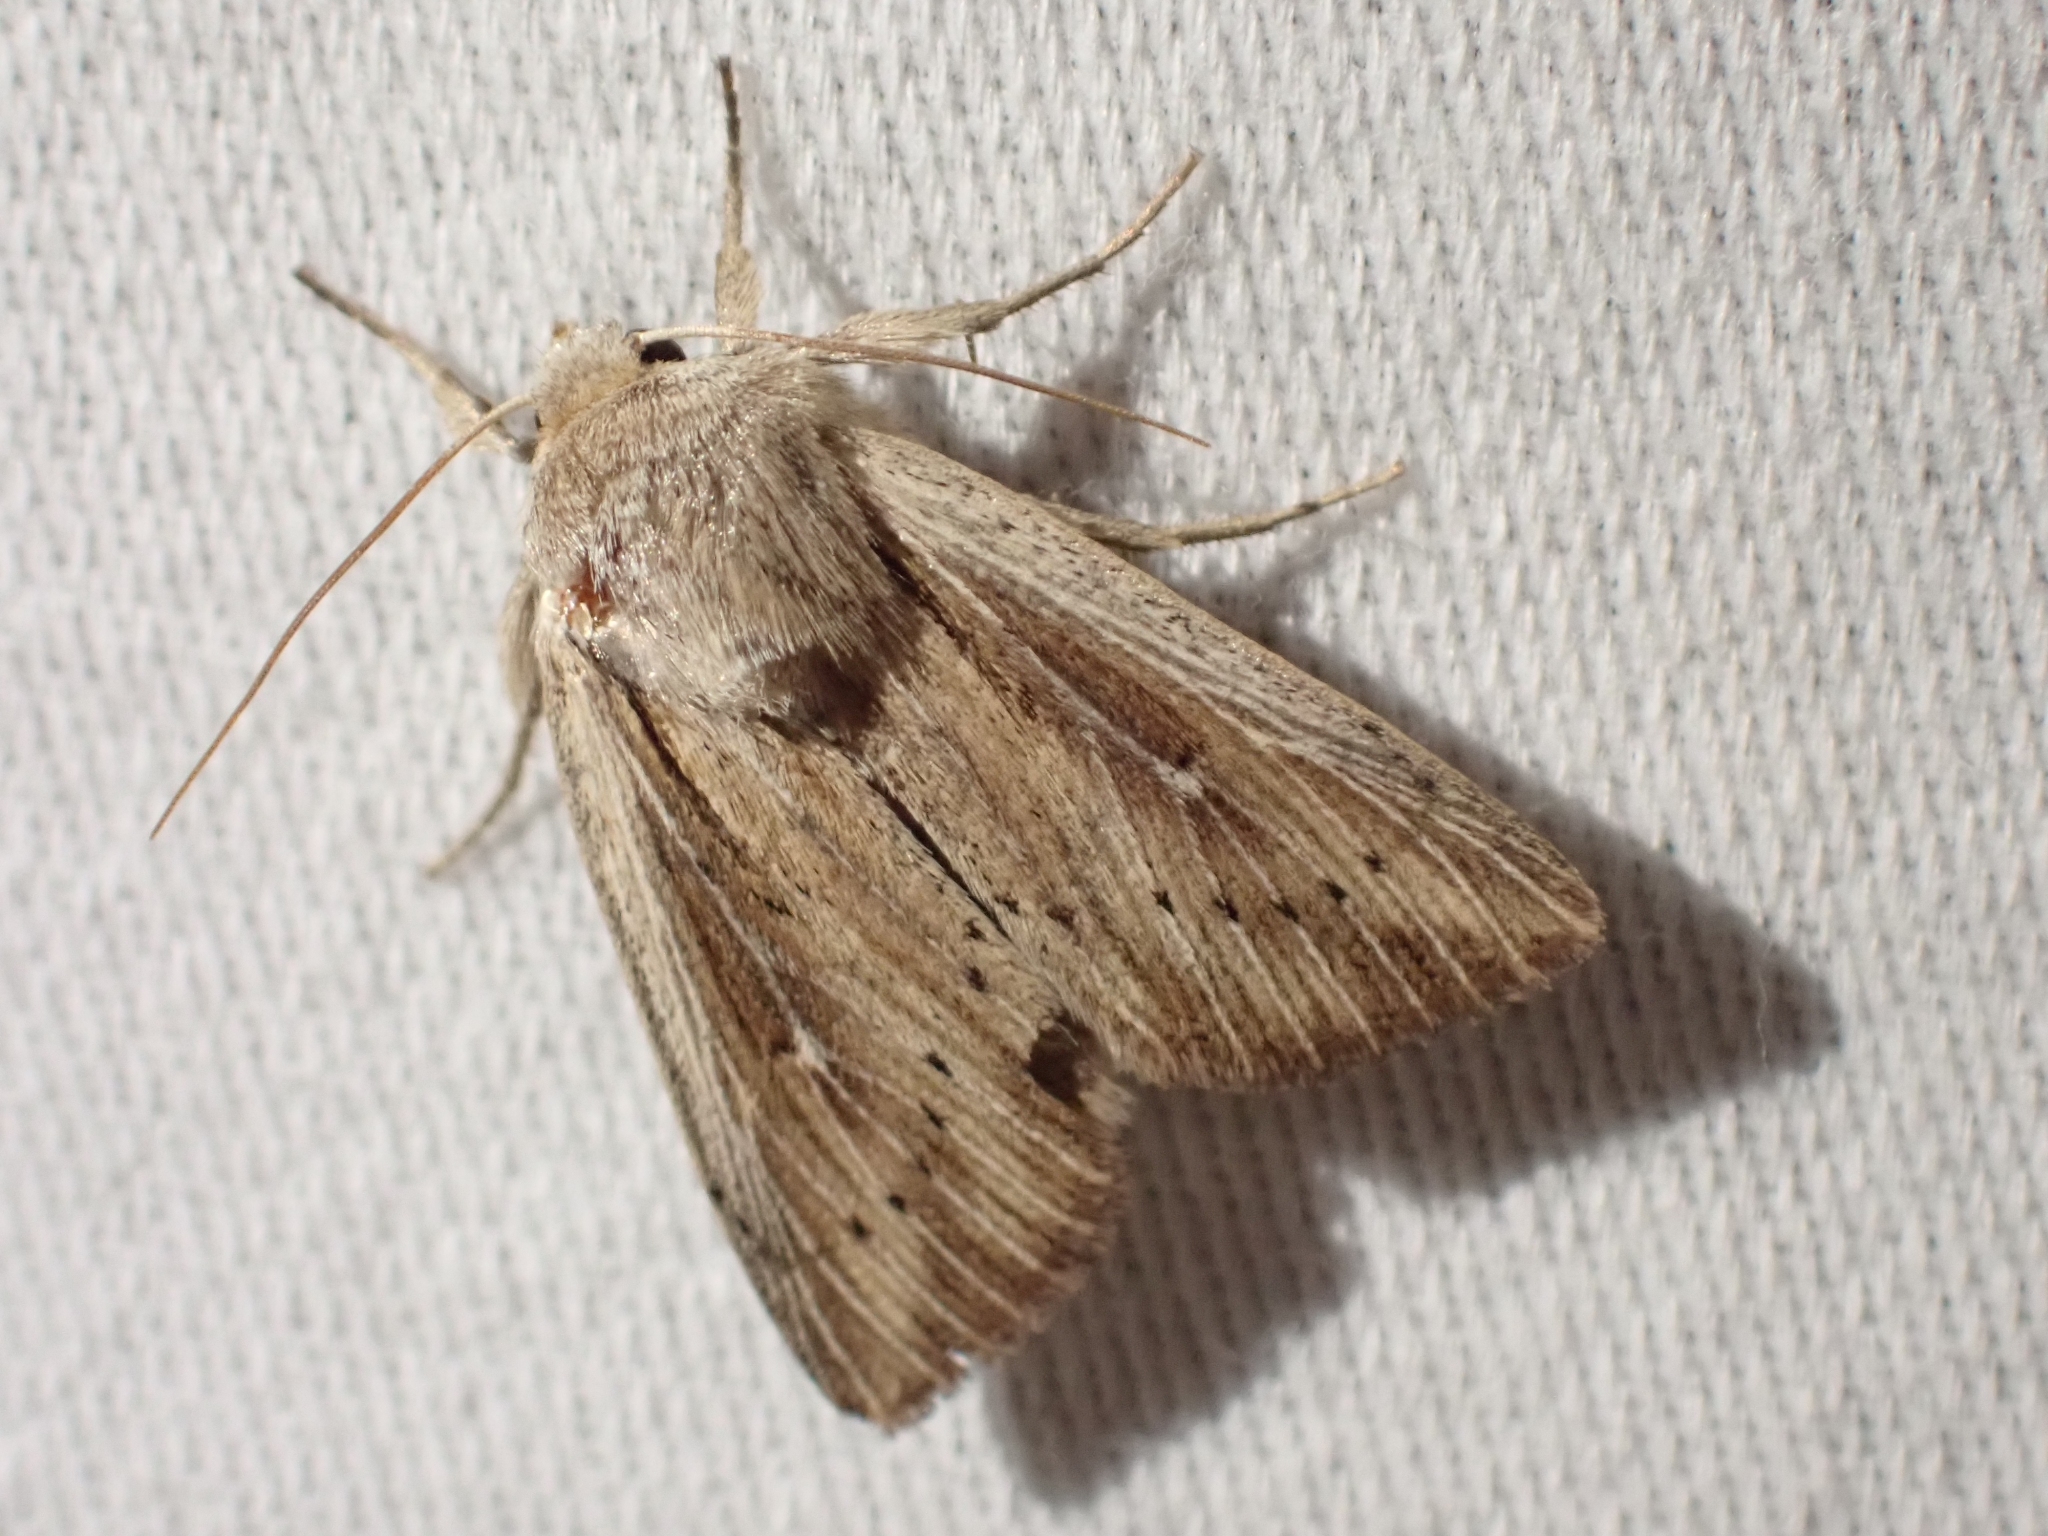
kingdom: Animalia
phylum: Arthropoda
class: Insecta
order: Lepidoptera
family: Noctuidae
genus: Leucania
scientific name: Leucania insueta
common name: Heterodox wainscot moth
